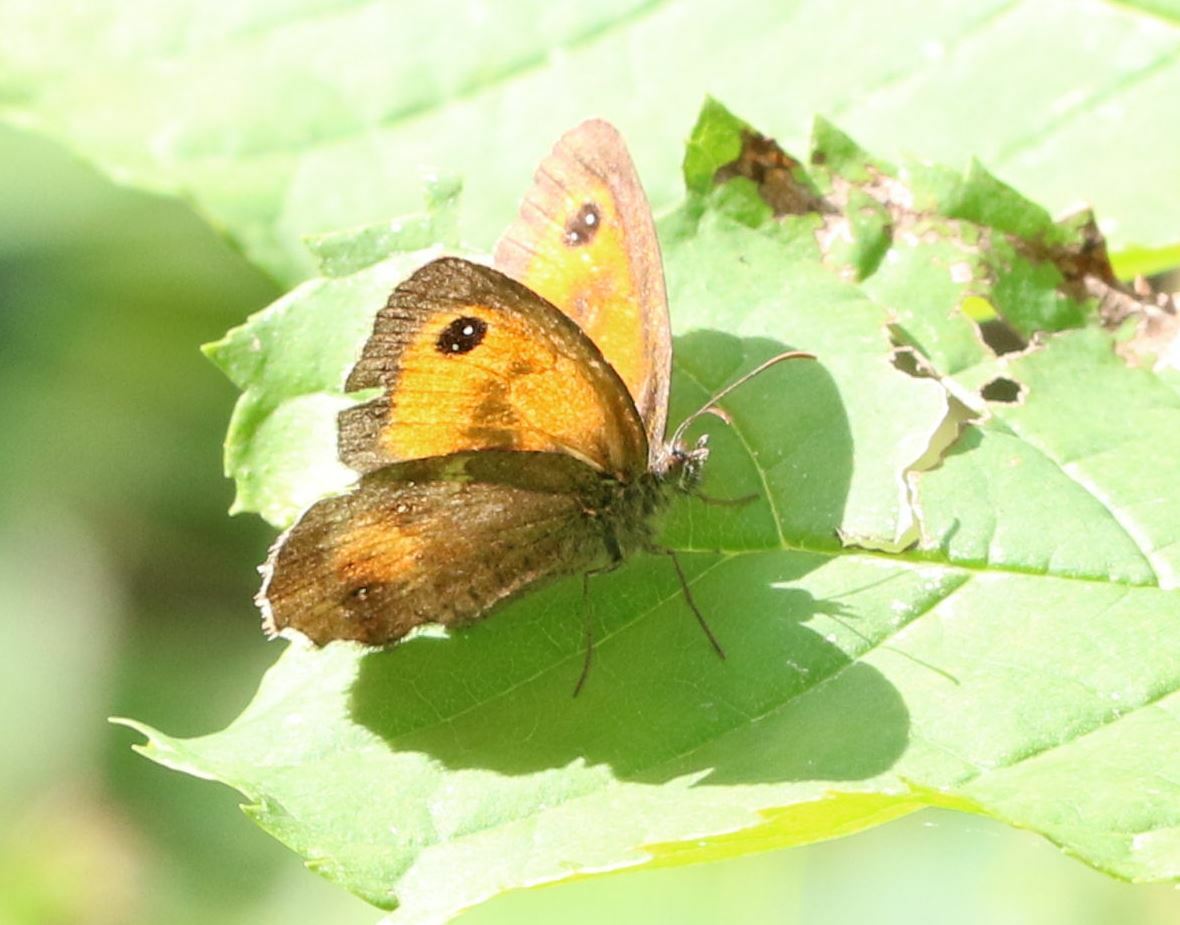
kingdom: Animalia
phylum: Arthropoda
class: Insecta
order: Lepidoptera
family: Nymphalidae
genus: Pyronia
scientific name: Pyronia tithonus
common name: Gatekeeper
